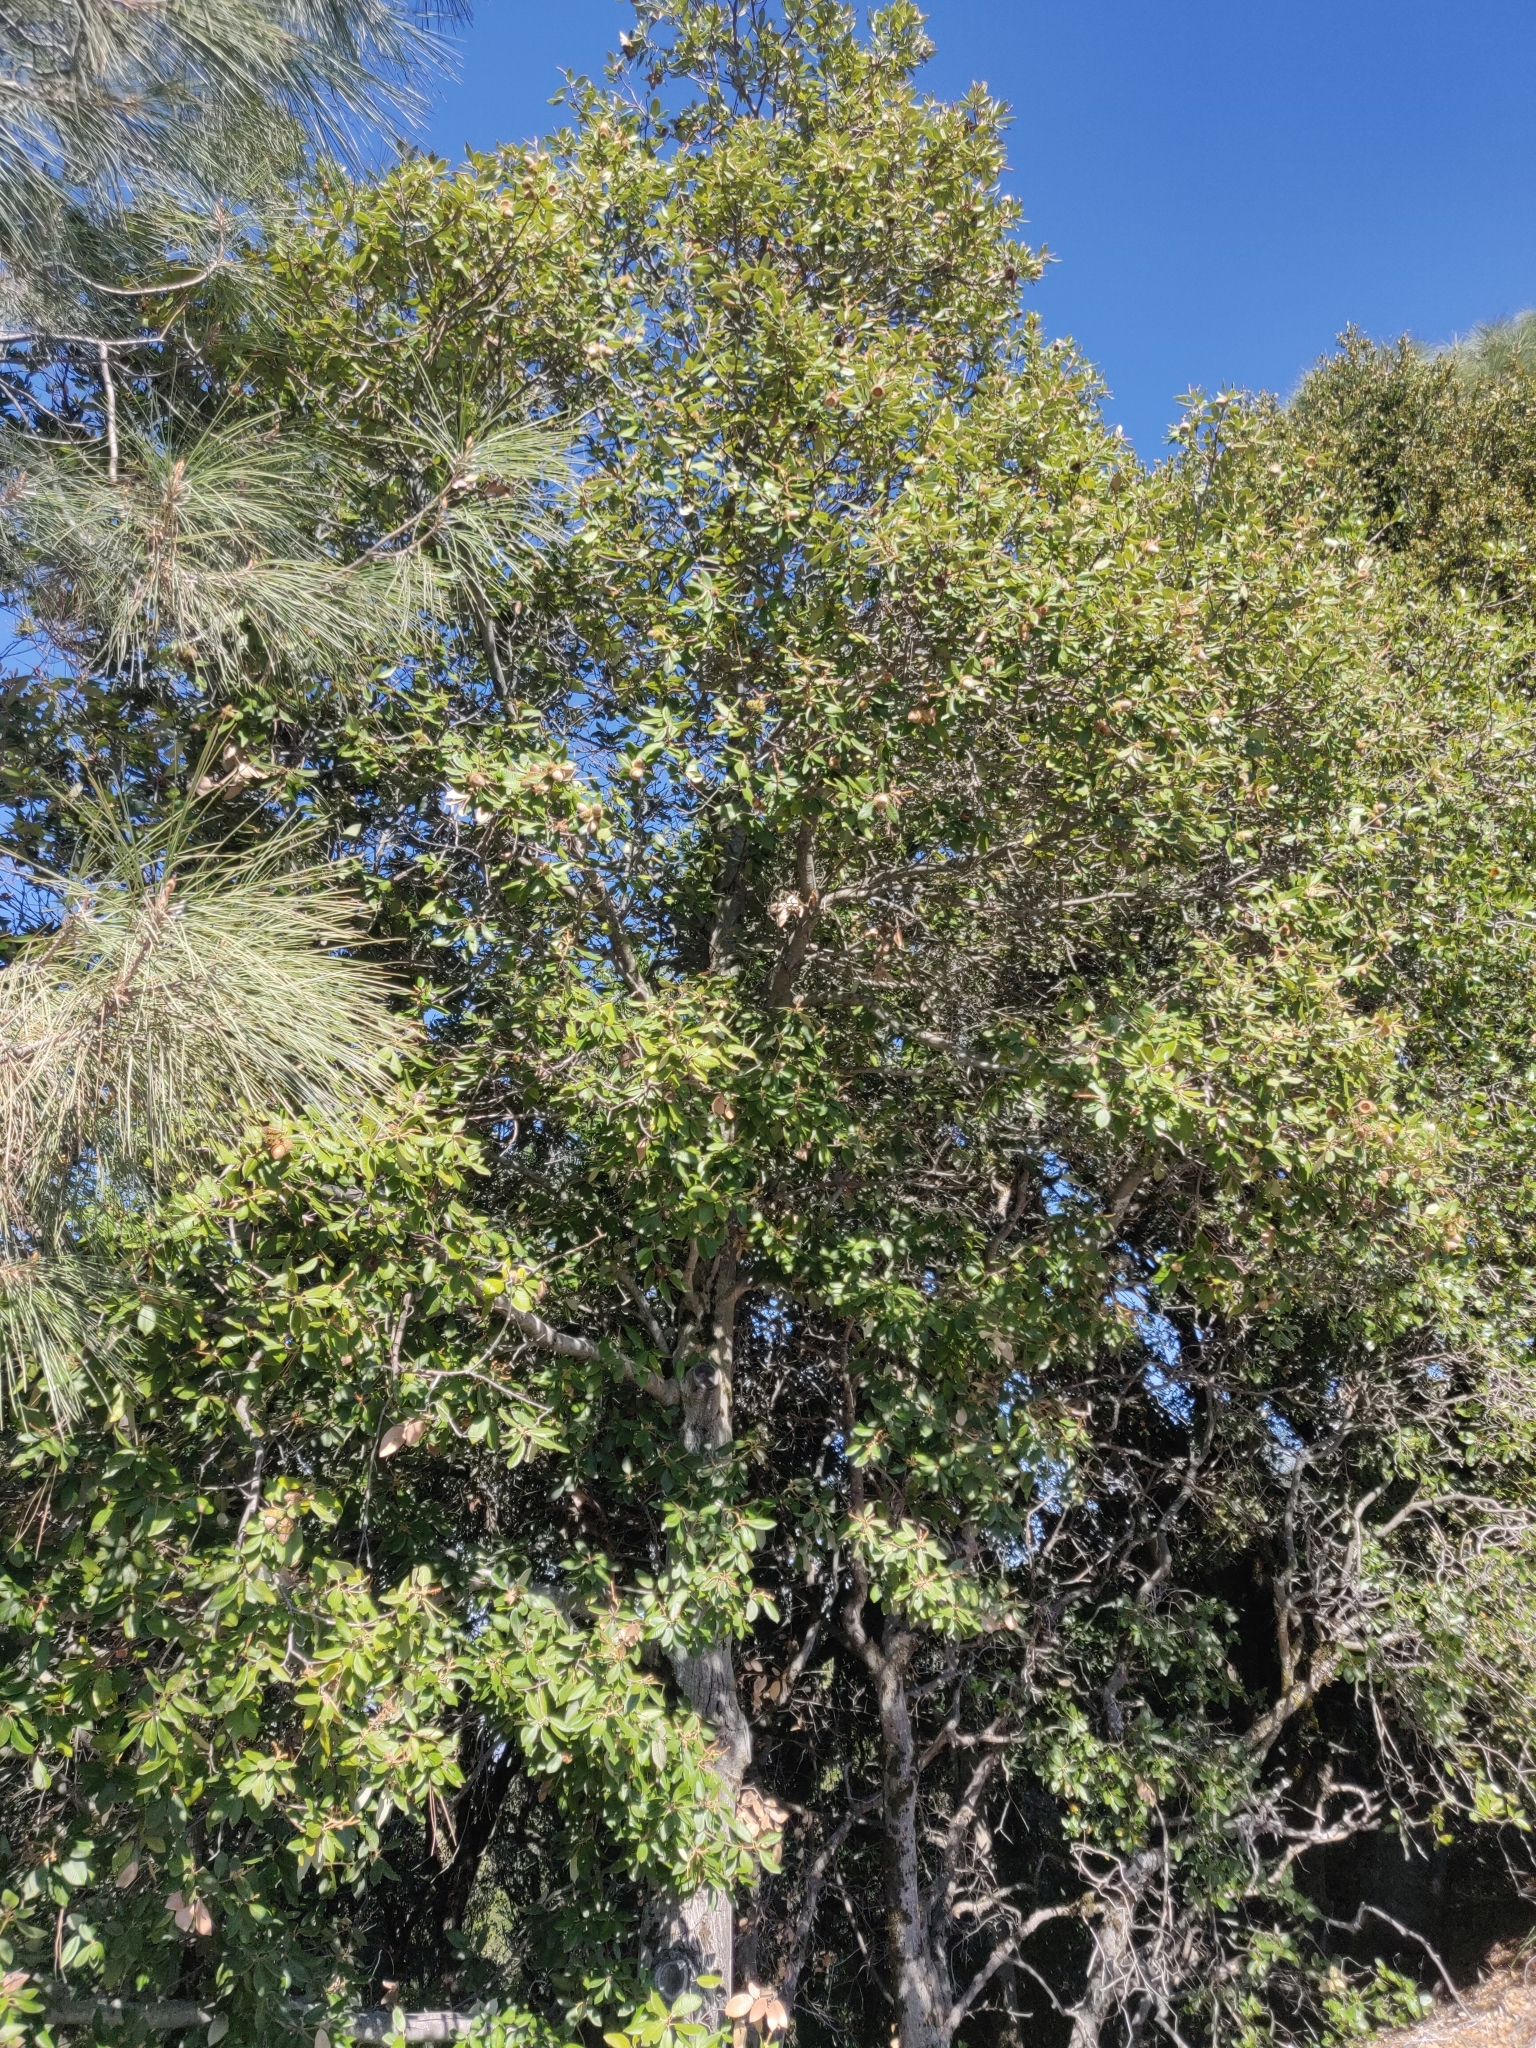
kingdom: Plantae
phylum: Tracheophyta
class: Magnoliopsida
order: Fagales
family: Fagaceae
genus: Notholithocarpus
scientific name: Notholithocarpus densiflorus
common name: Tan bark oak
